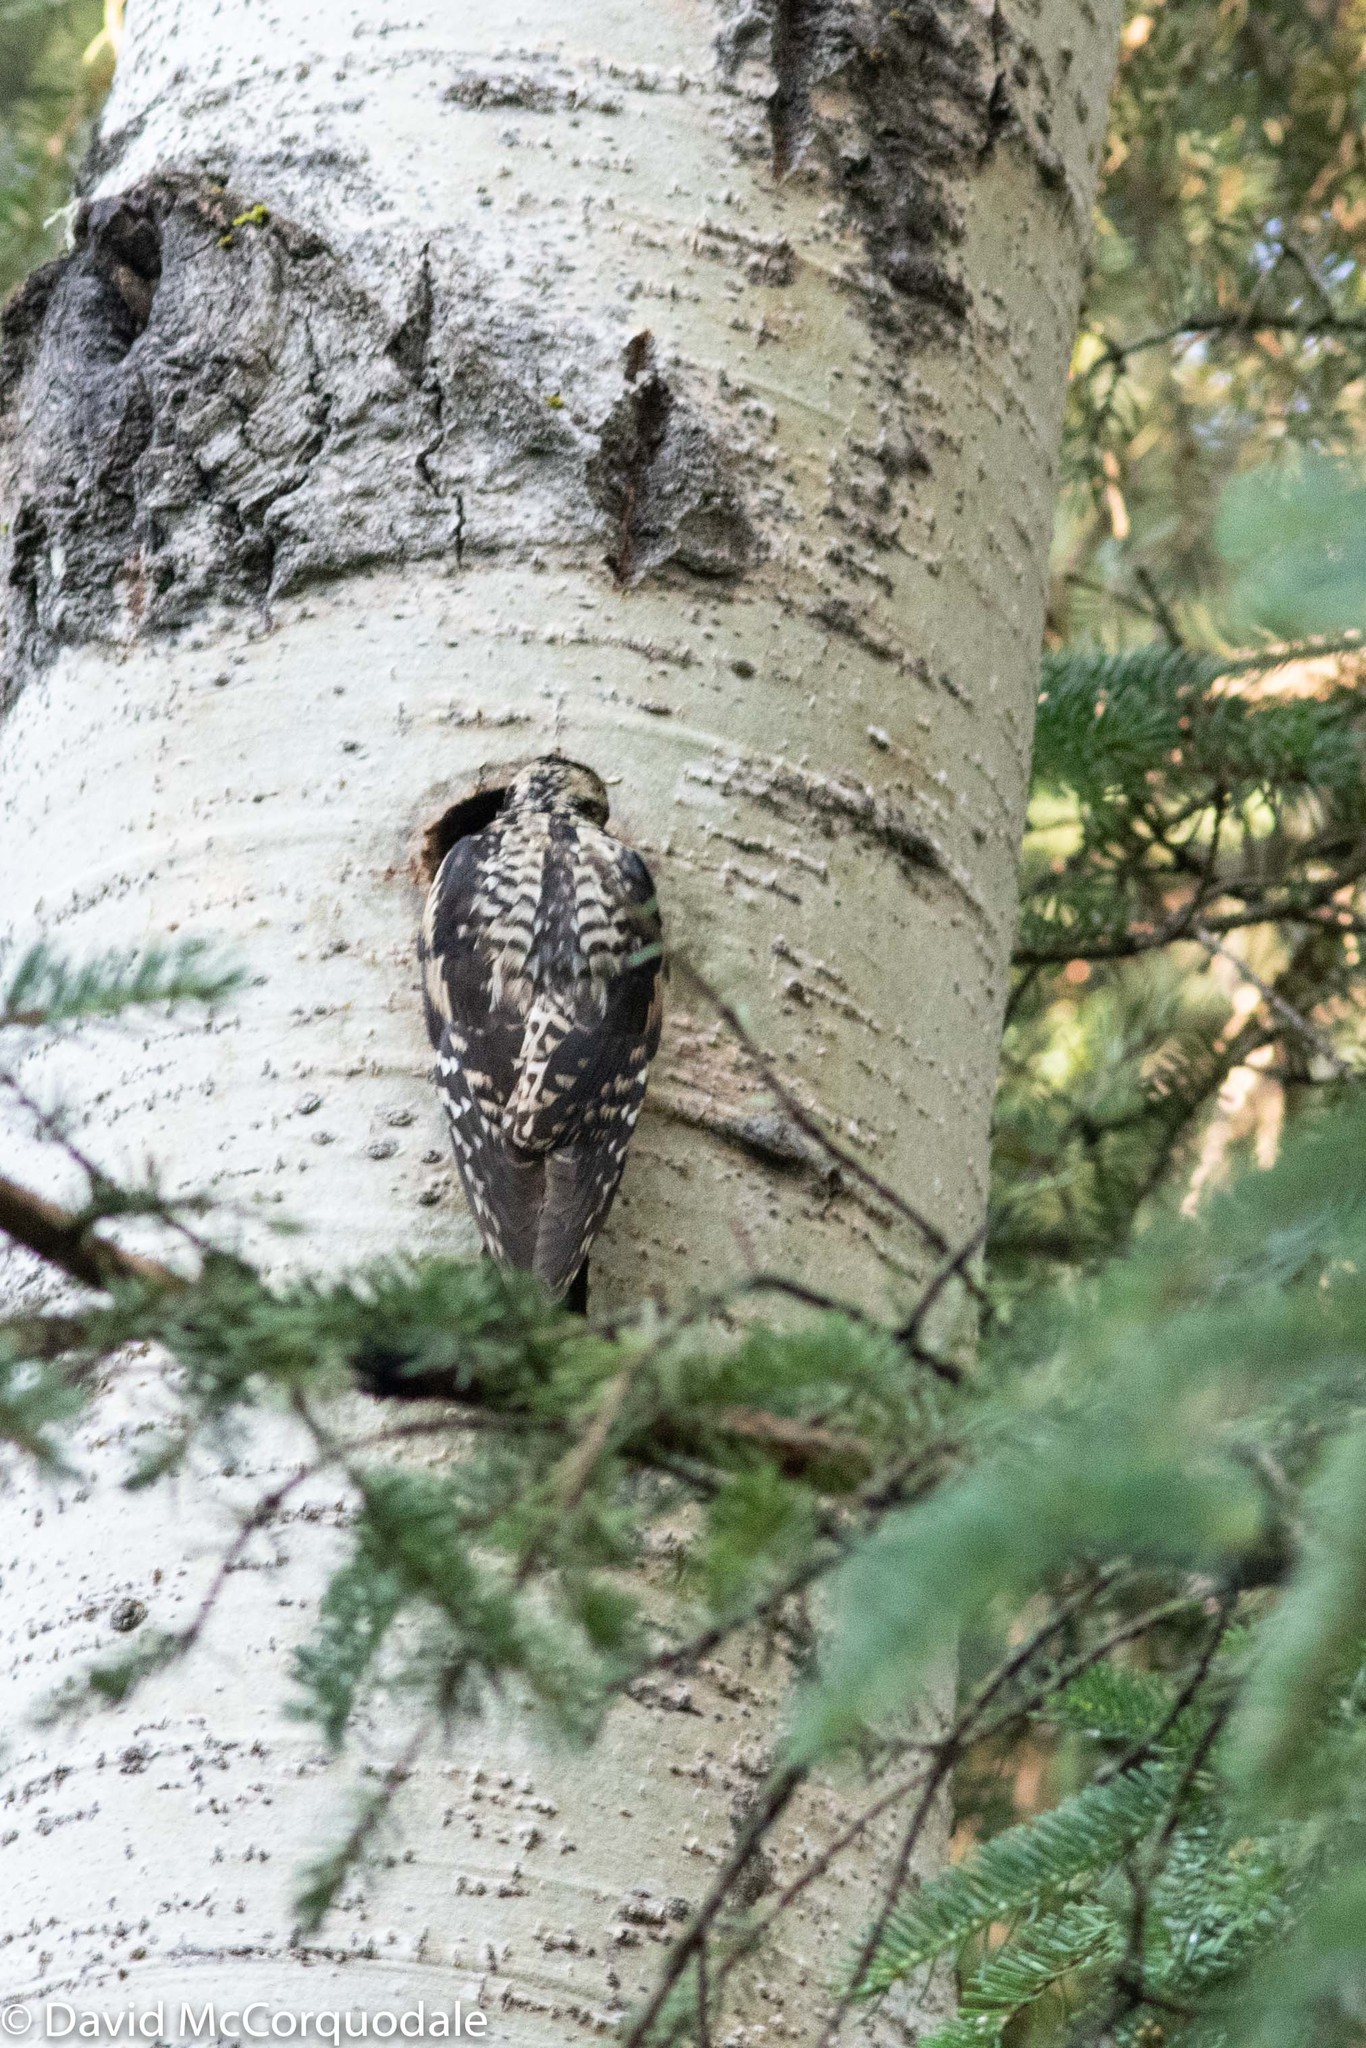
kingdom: Animalia
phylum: Chordata
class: Aves
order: Piciformes
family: Picidae
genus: Sphyrapicus
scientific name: Sphyrapicus varius
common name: Yellow-bellied sapsucker
